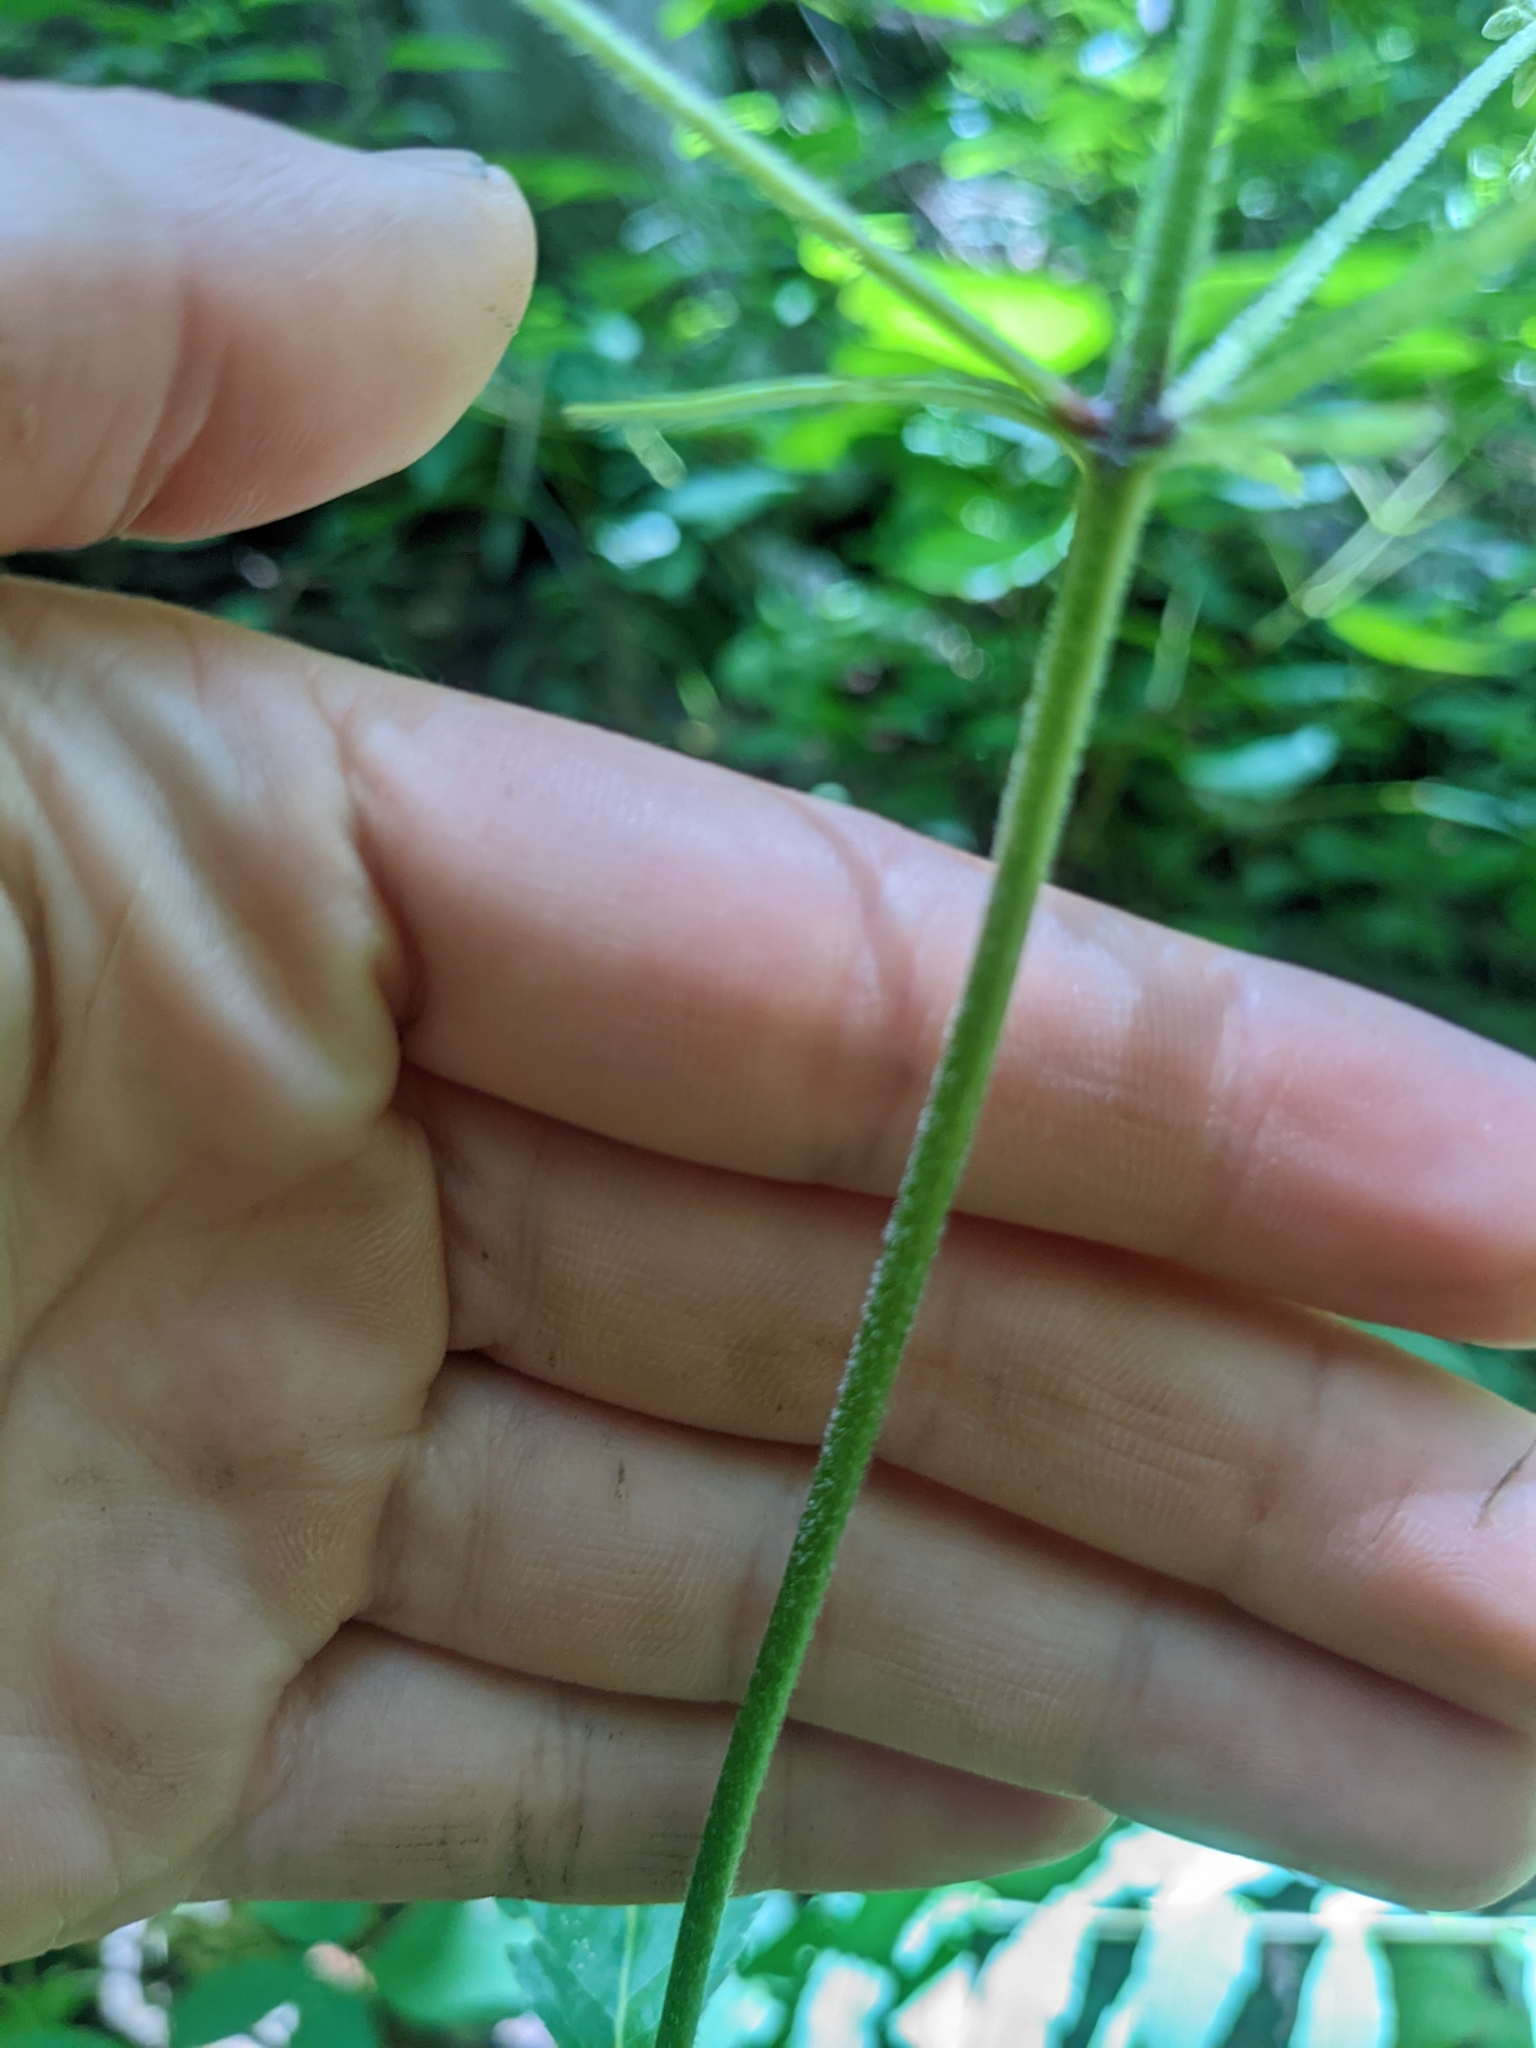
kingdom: Plantae
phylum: Tracheophyta
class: Magnoliopsida
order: Asterales
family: Asteraceae
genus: Eutrochium
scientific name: Eutrochium purpureum
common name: Gravelroot
